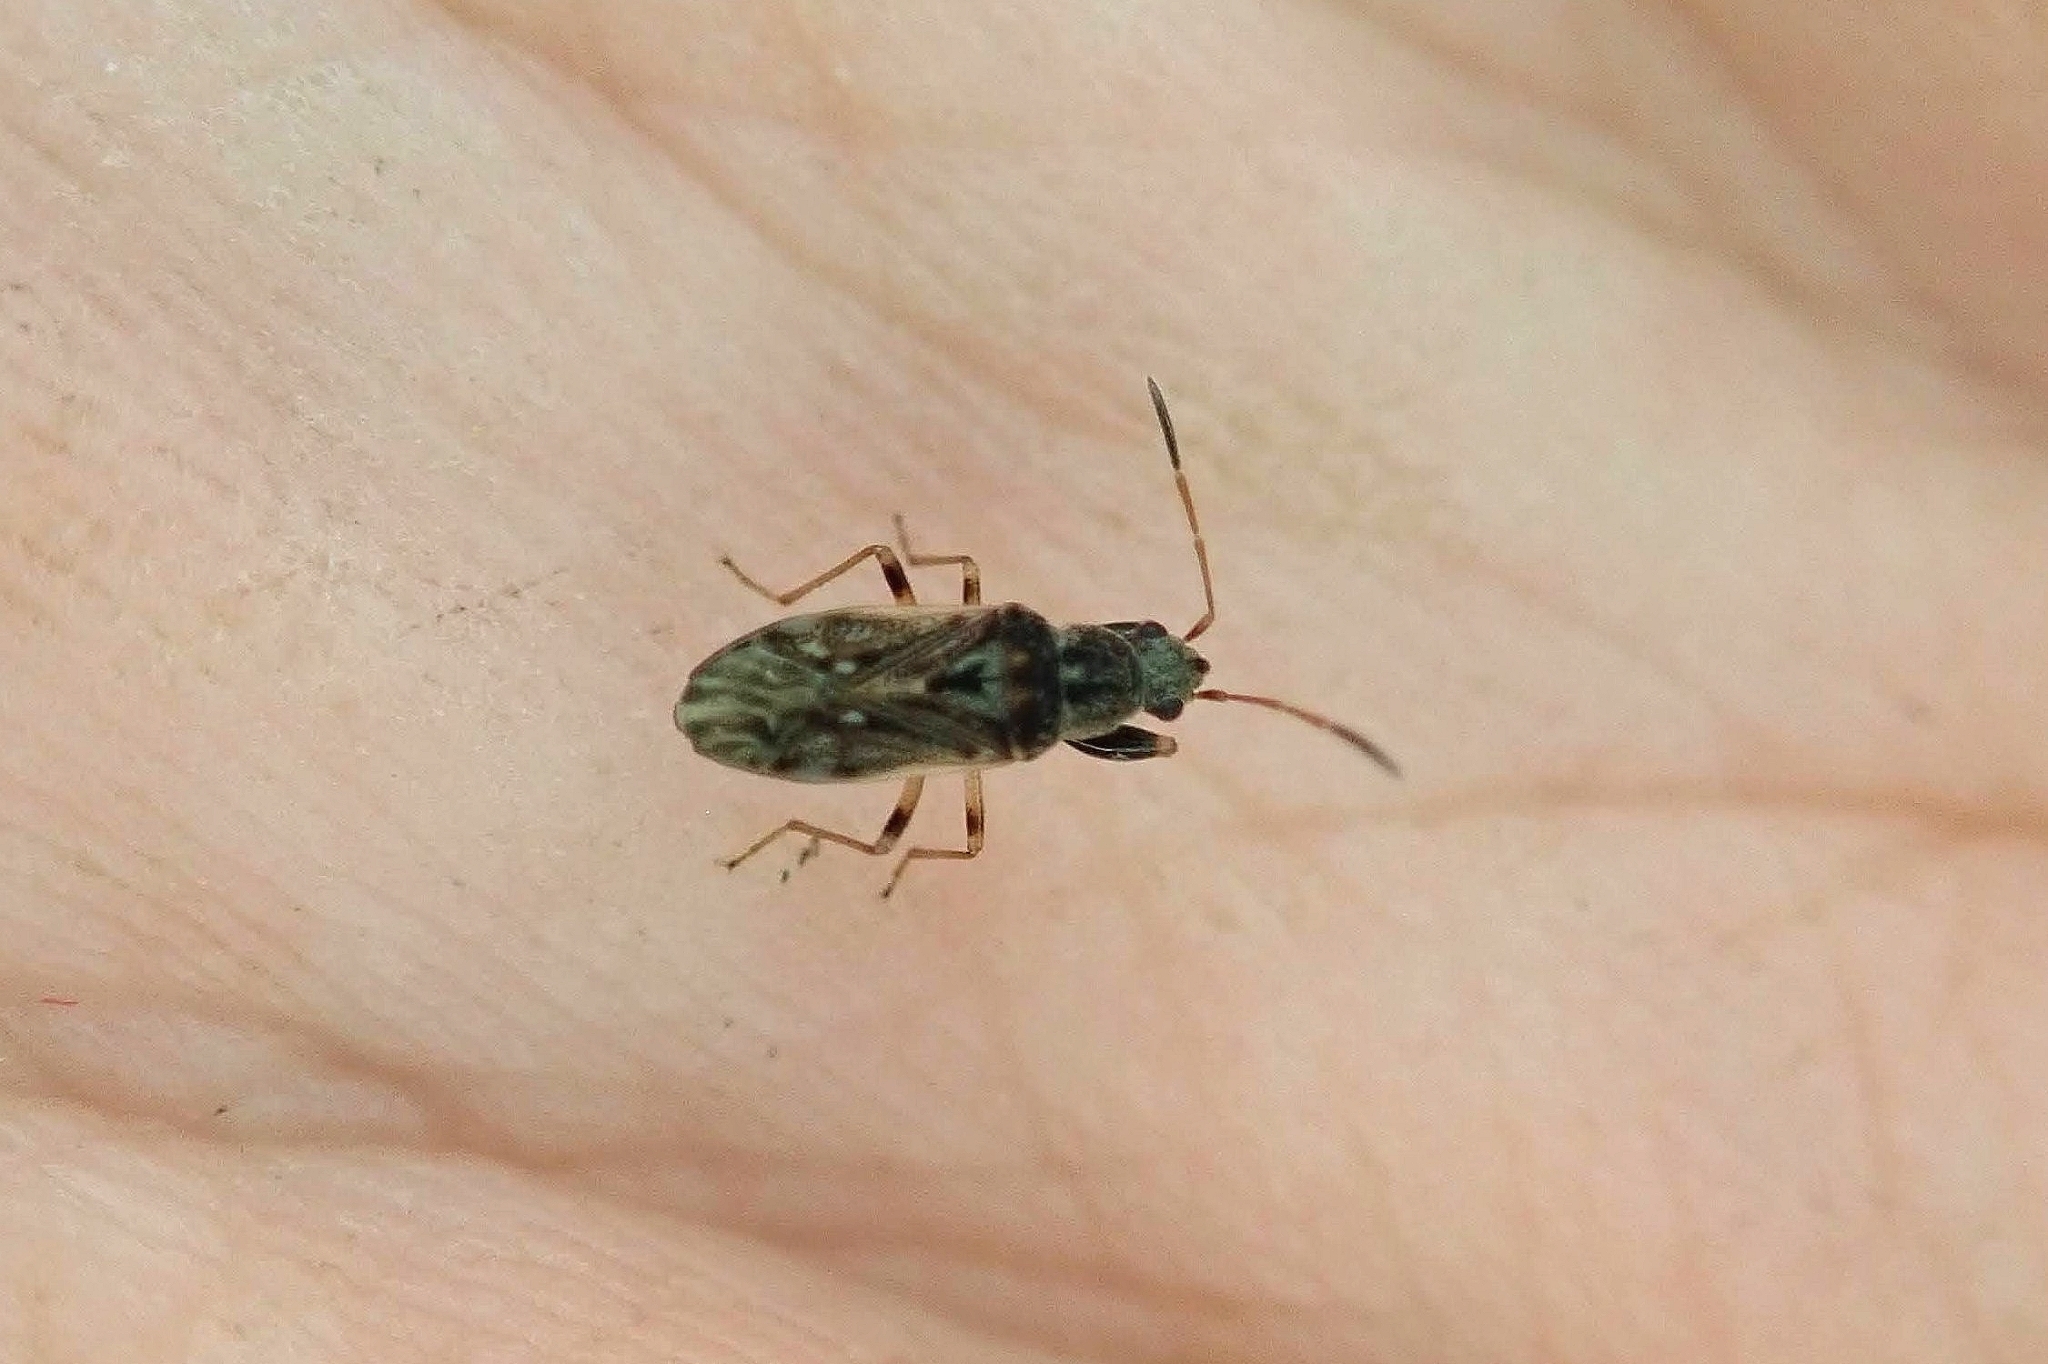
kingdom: Animalia
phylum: Arthropoda
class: Insecta
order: Hemiptera
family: Rhyparochromidae
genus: Pseudopachybrachius
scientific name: Pseudopachybrachius basalis
